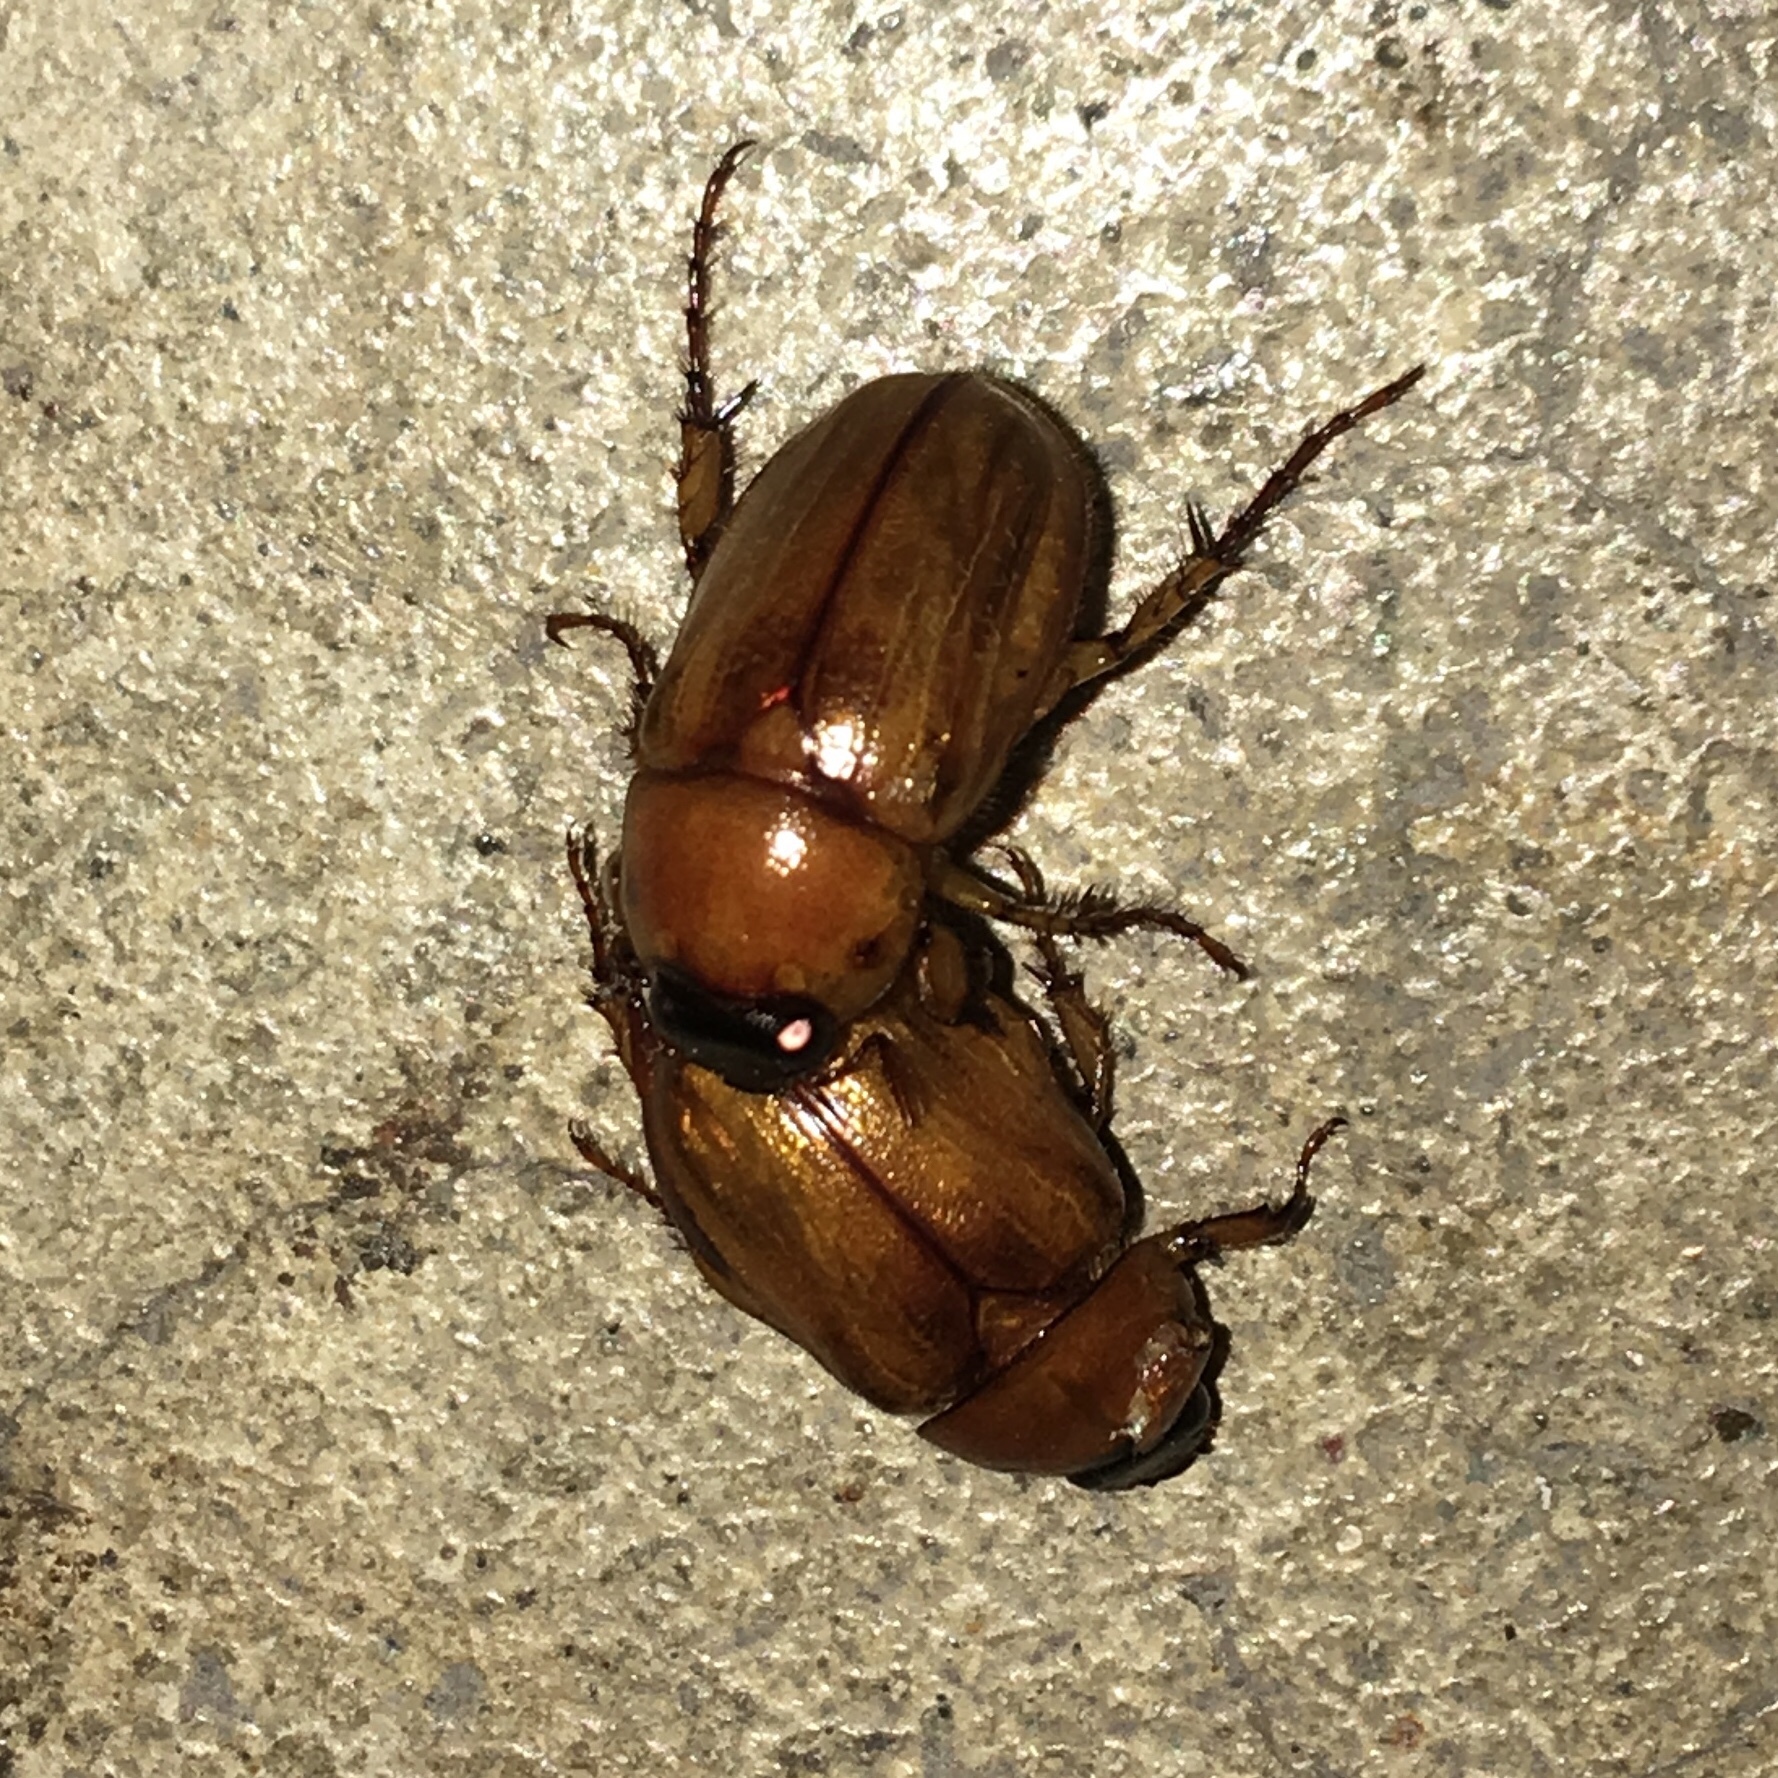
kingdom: Animalia
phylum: Arthropoda
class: Insecta
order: Coleoptera
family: Scarabaeidae
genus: Cyclocephala
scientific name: Cyclocephala lurida
